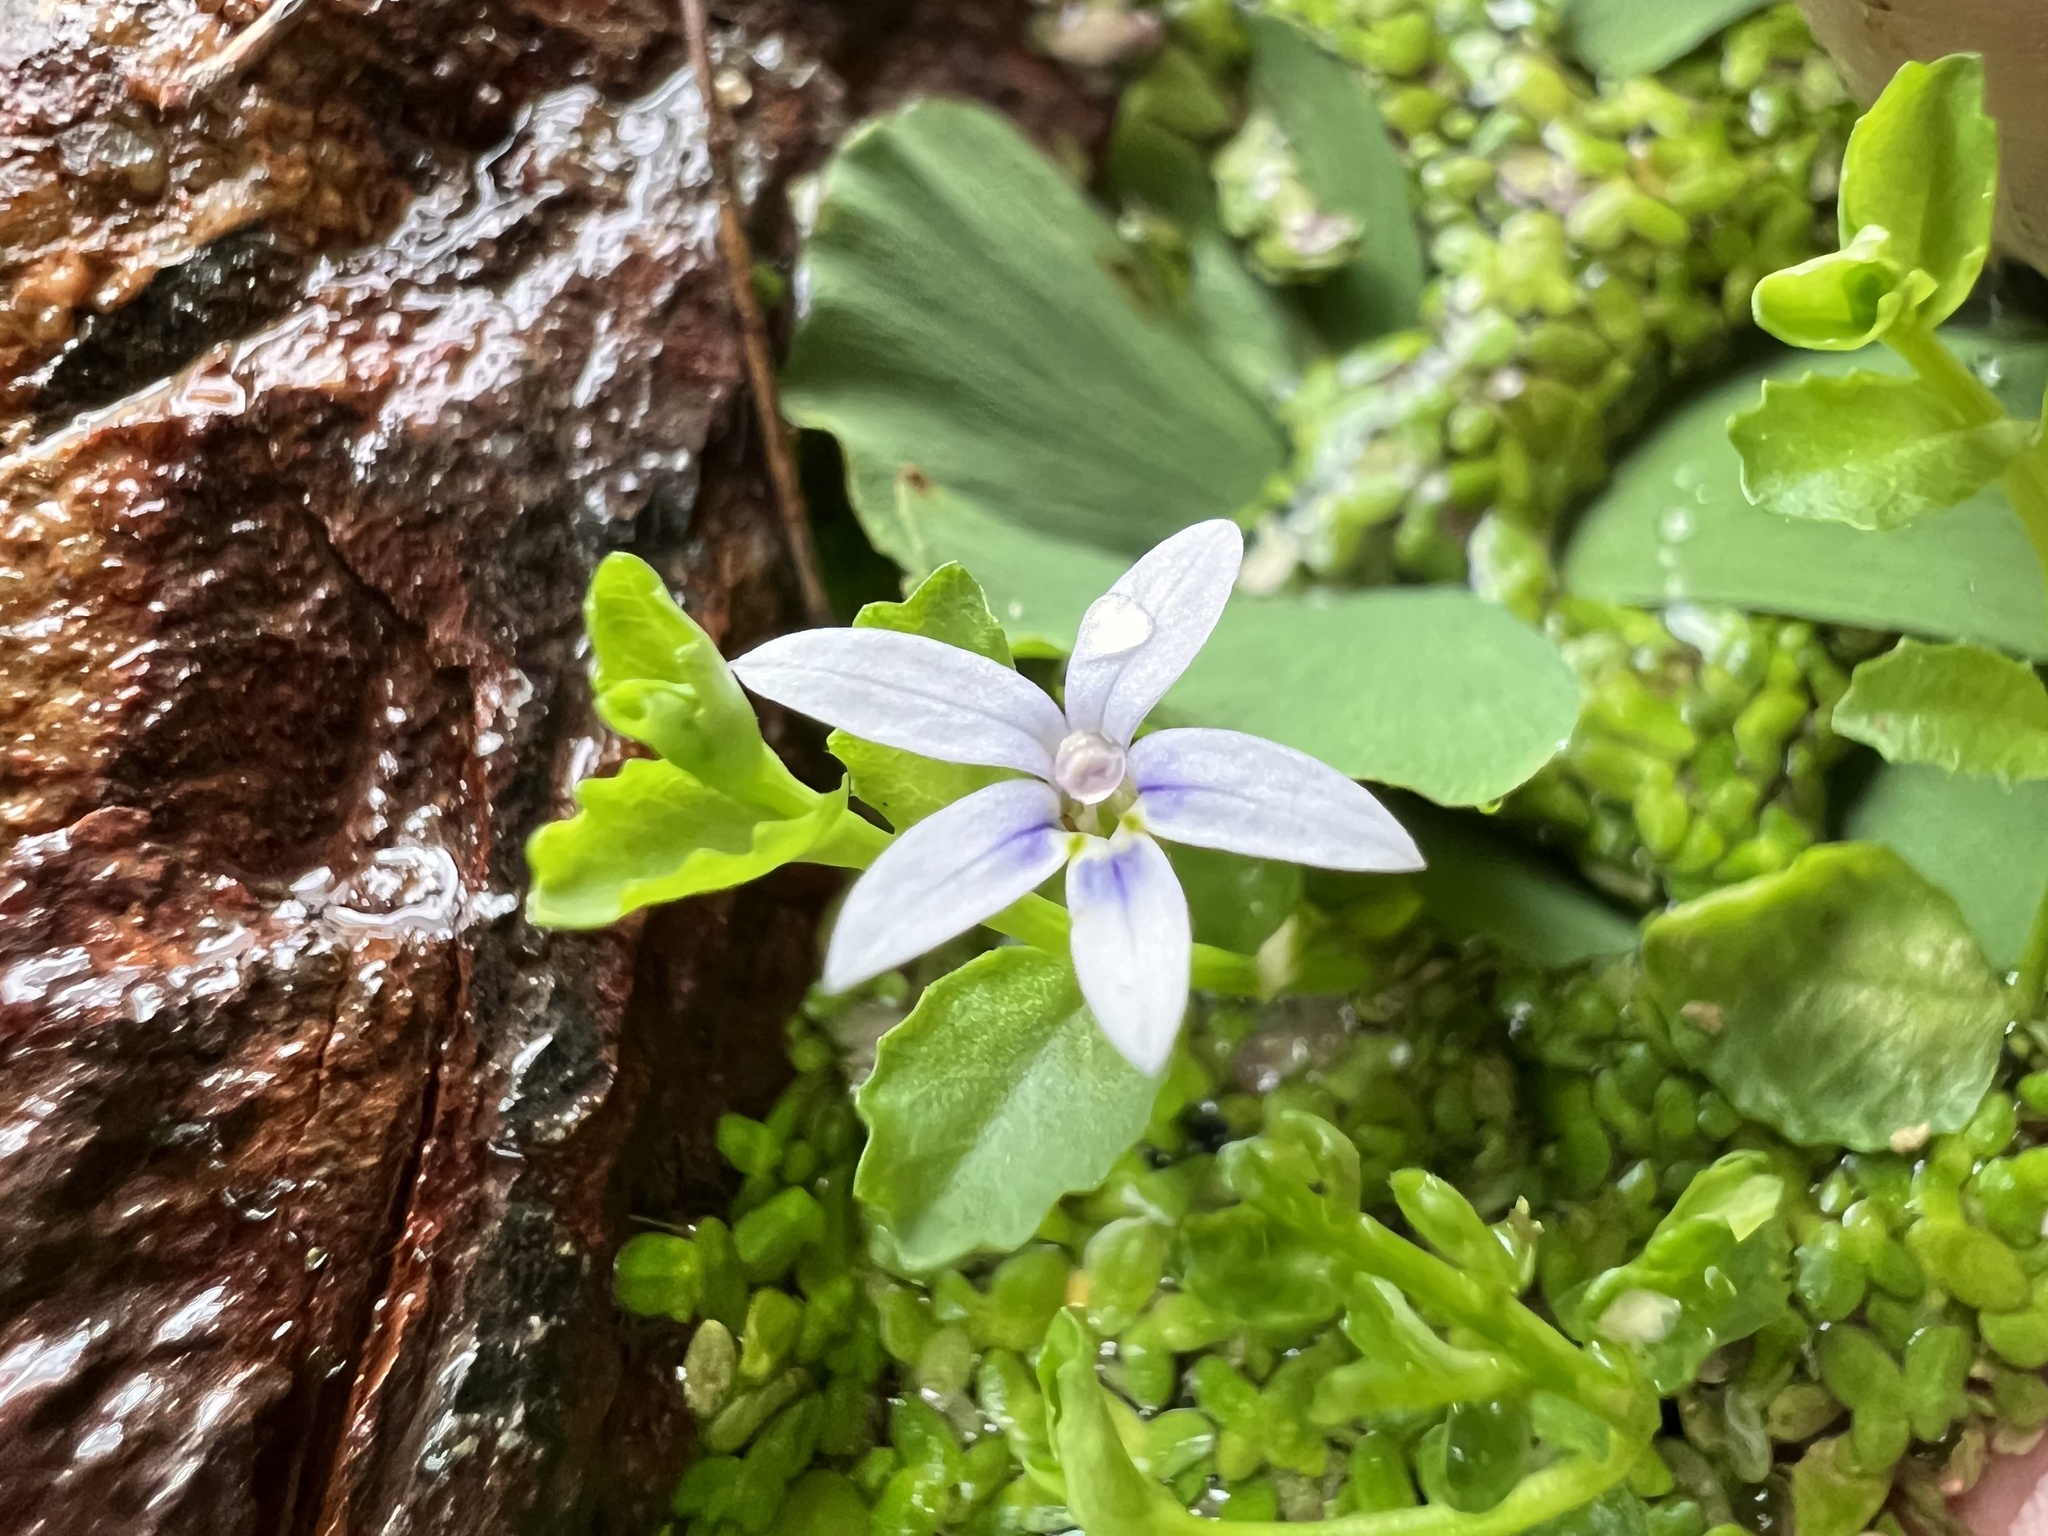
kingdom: Plantae
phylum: Tracheophyta
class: Magnoliopsida
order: Asterales
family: Campanulaceae
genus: Isotoma
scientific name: Isotoma fluviatilis
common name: Isotoma
